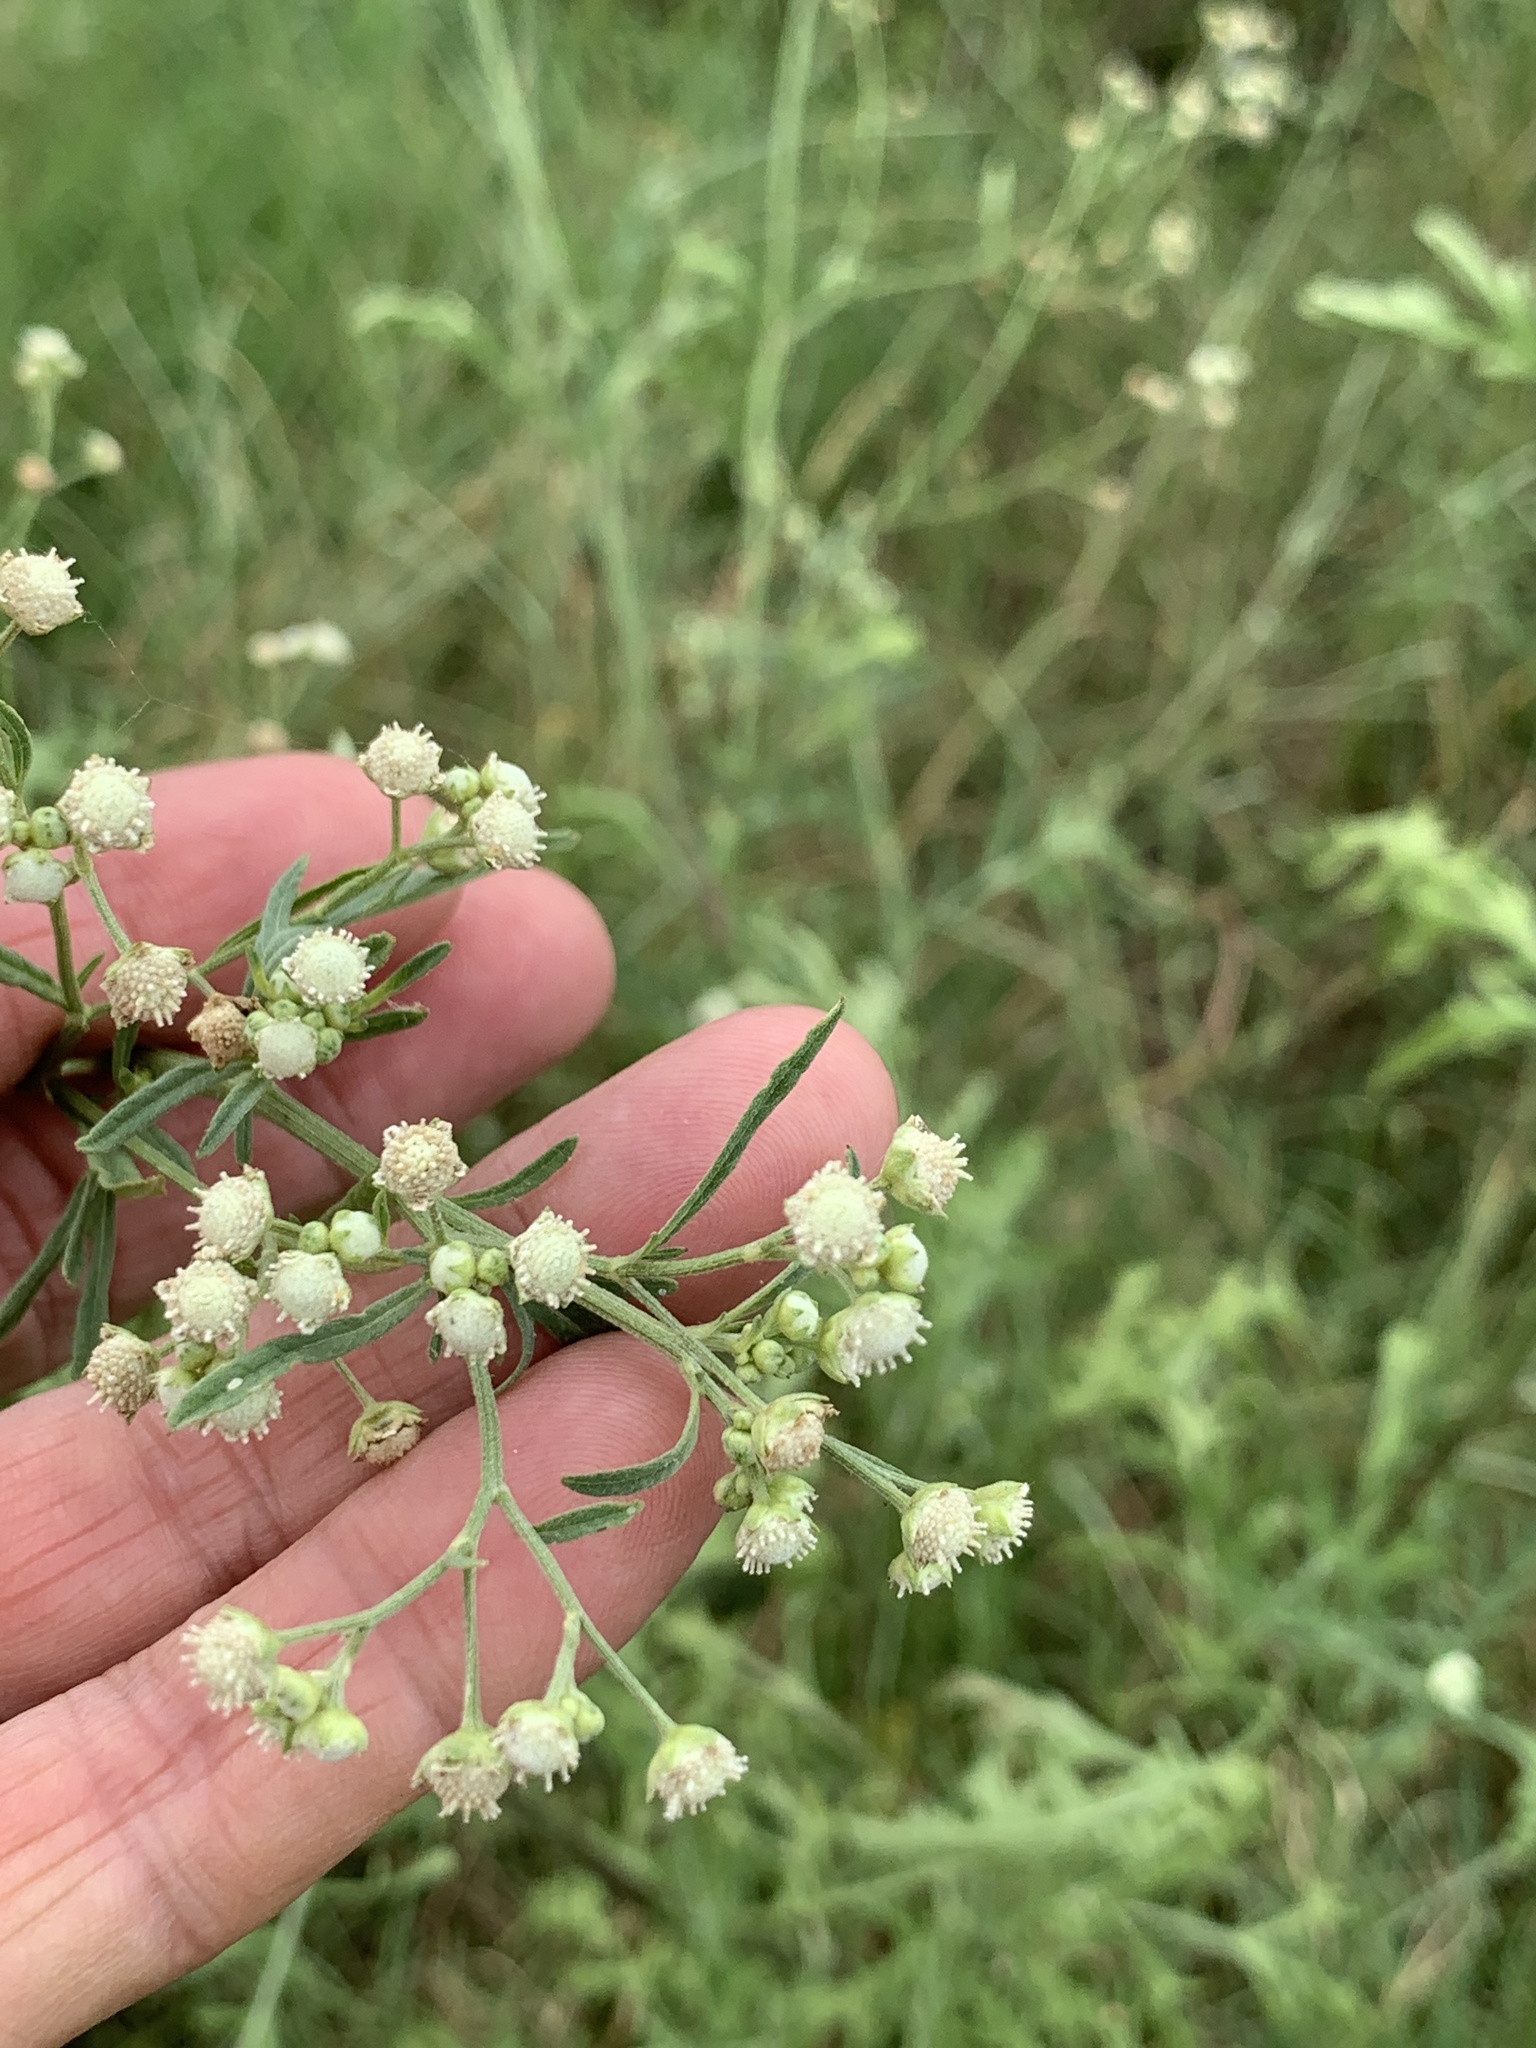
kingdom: Plantae
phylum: Tracheophyta
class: Magnoliopsida
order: Asterales
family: Asteraceae
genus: Parthenium
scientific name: Parthenium hysterophorus
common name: Santa maria feverfew
